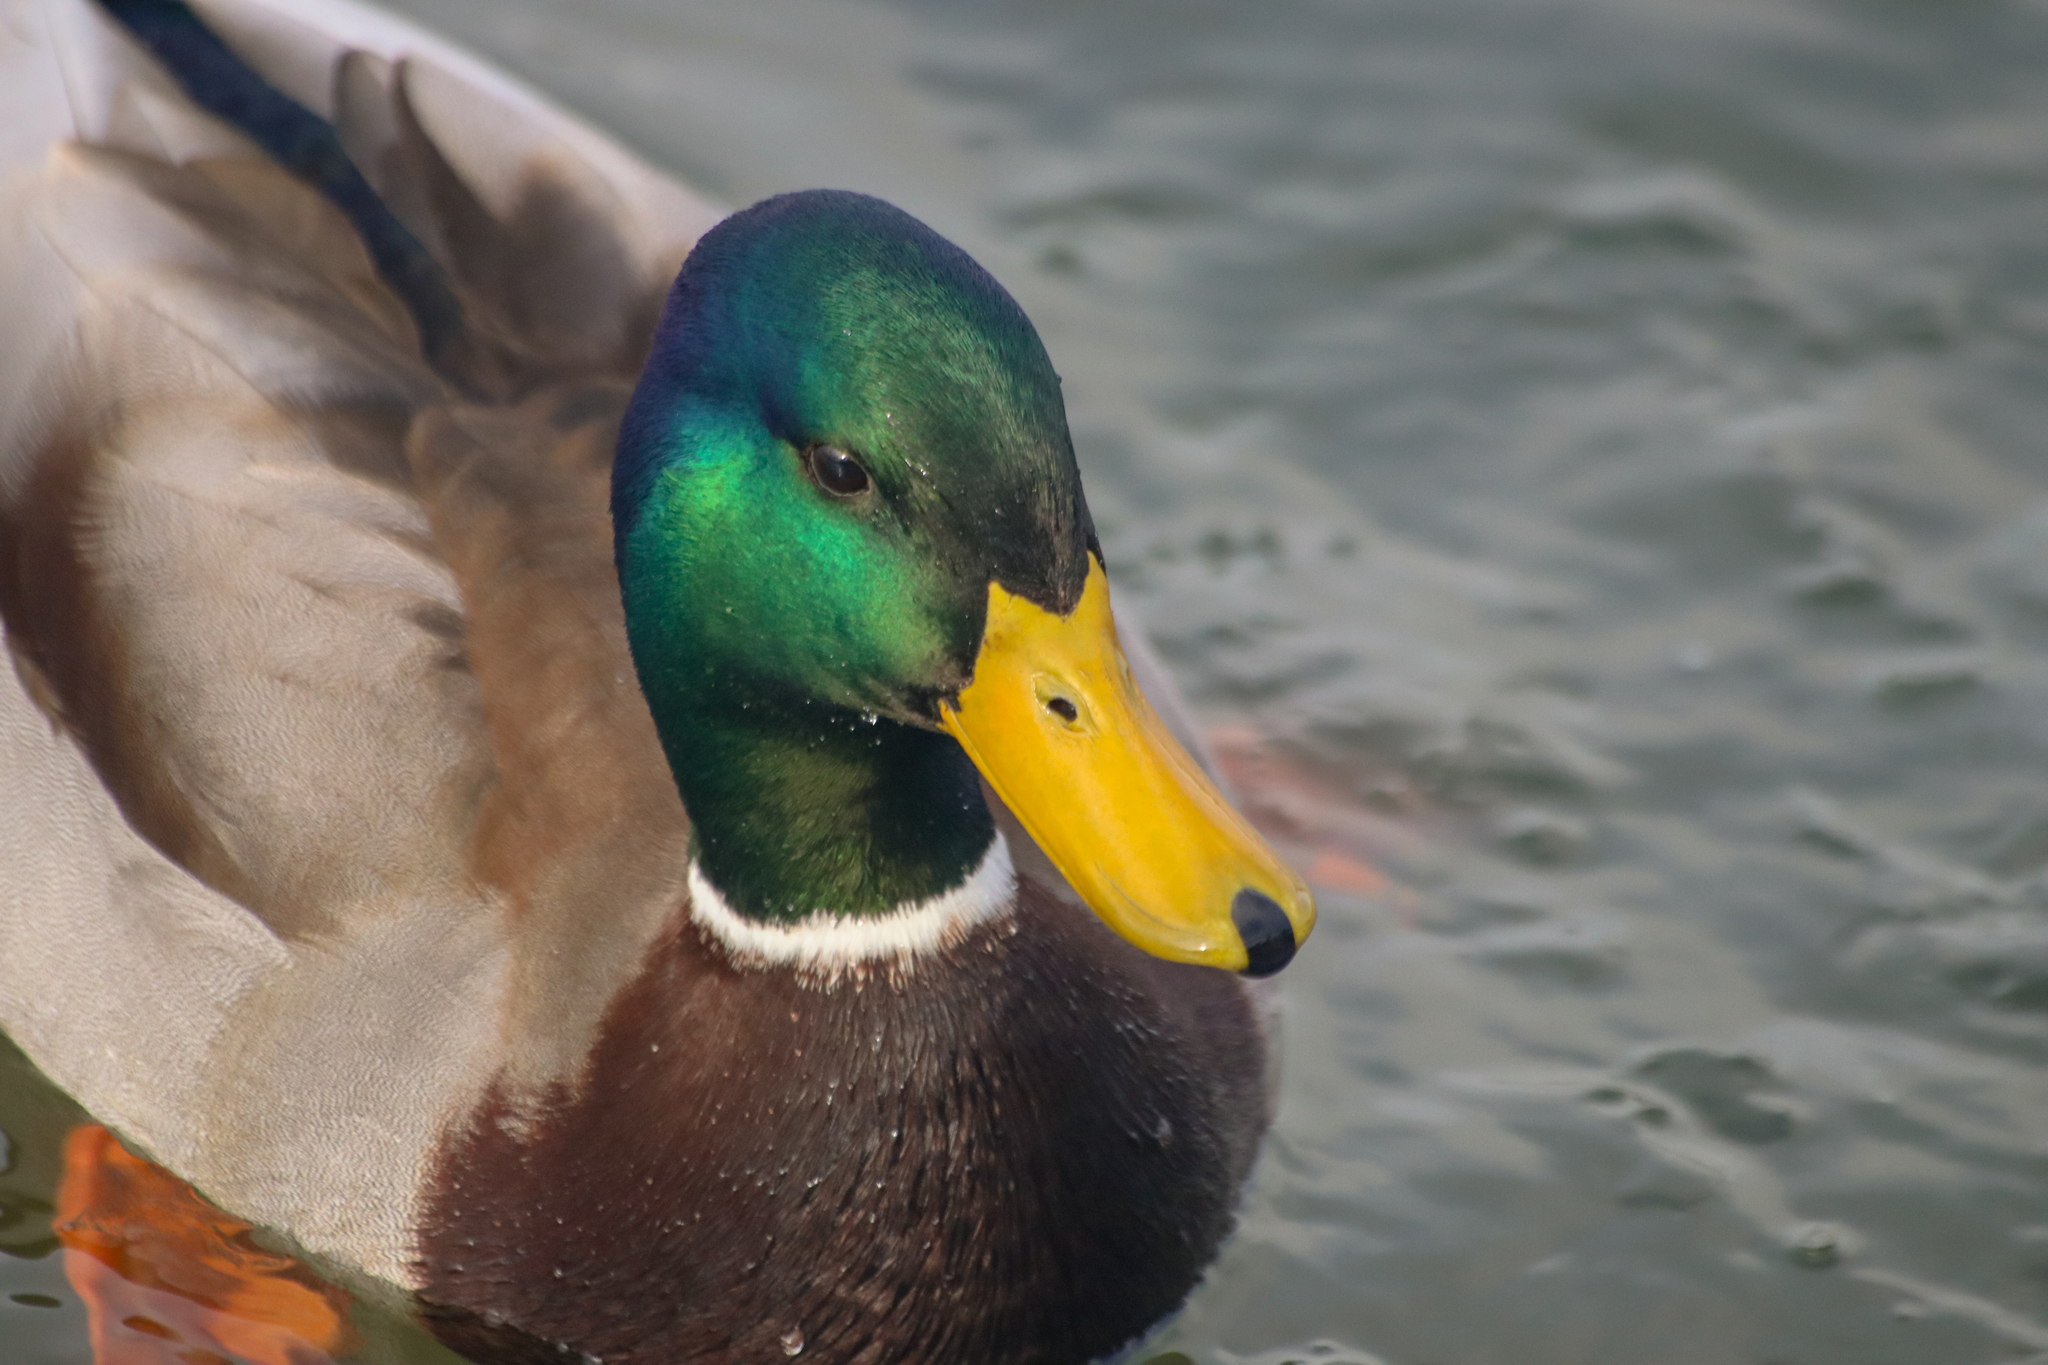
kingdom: Animalia
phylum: Chordata
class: Aves
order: Anseriformes
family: Anatidae
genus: Anas
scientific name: Anas platyrhynchos
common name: Mallard
